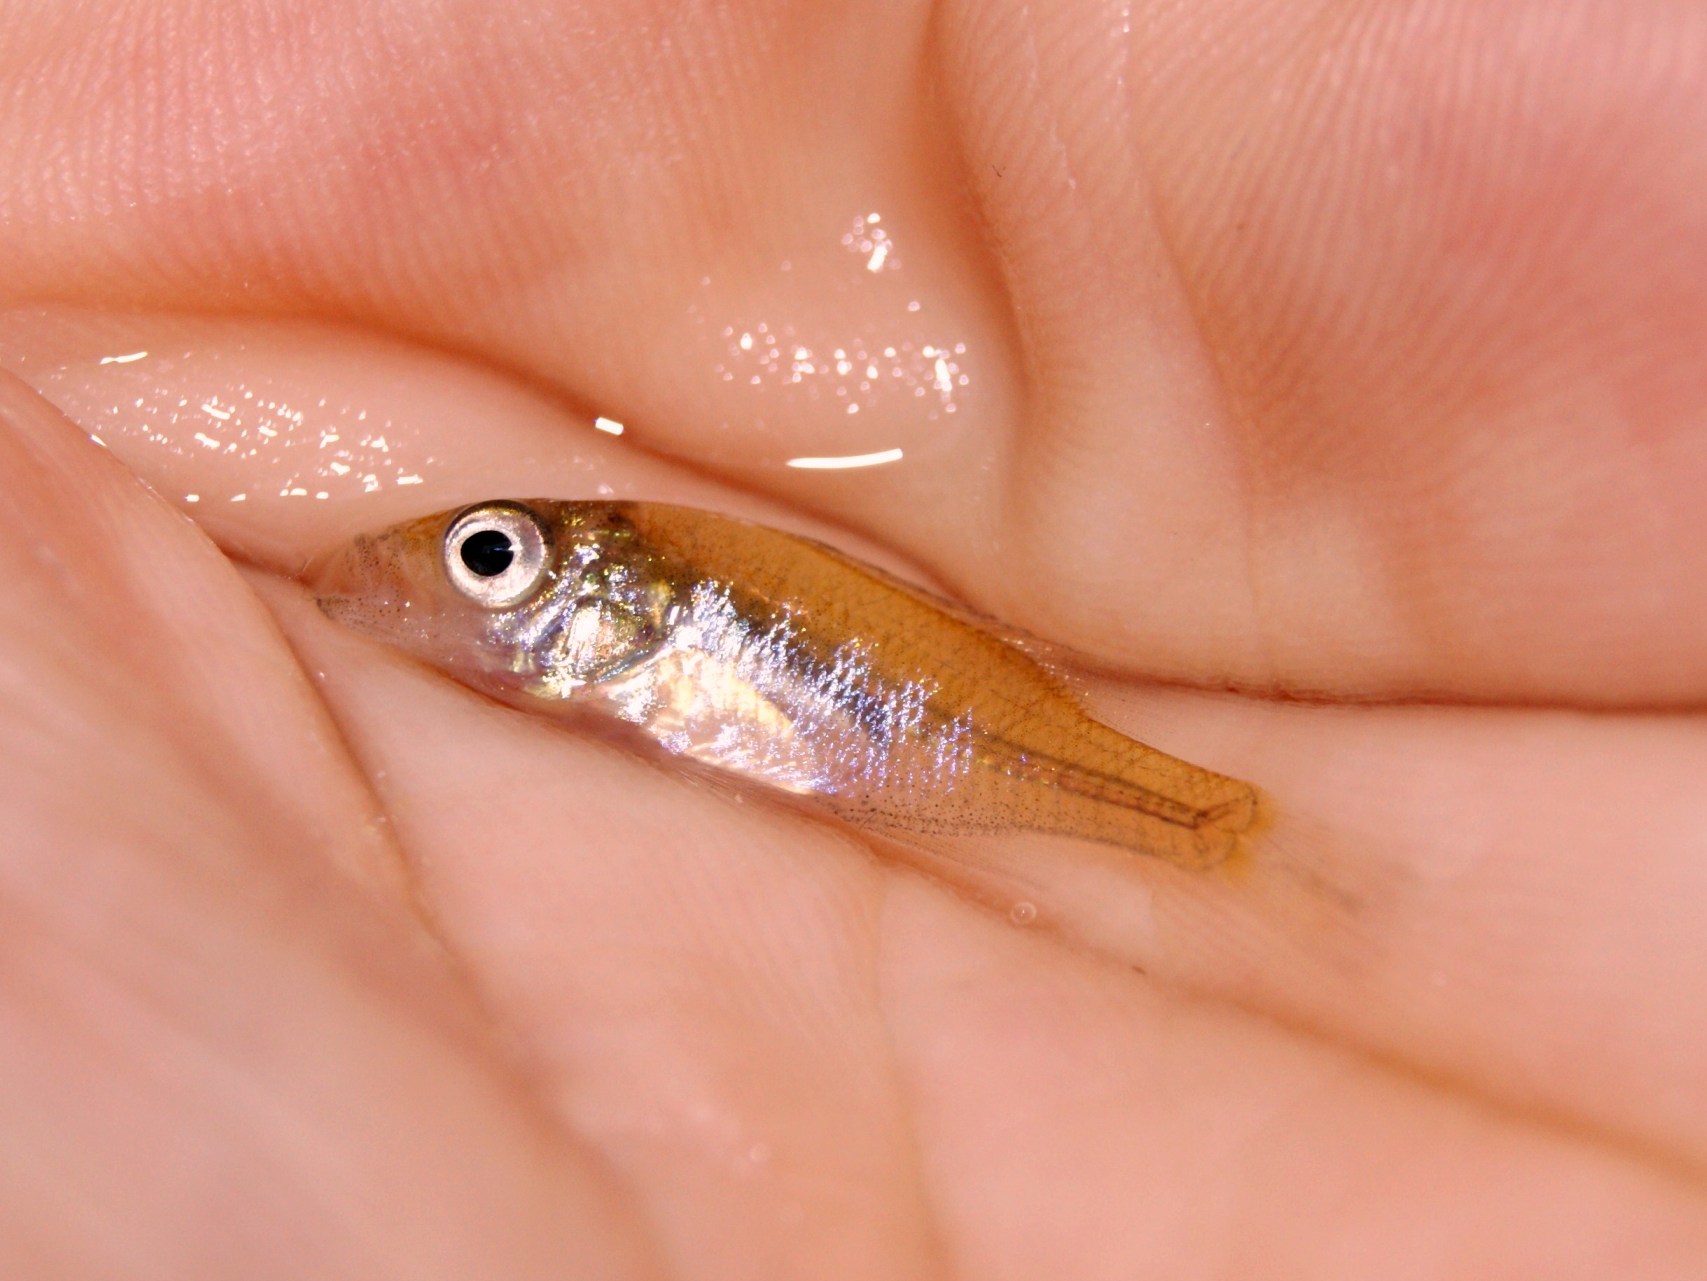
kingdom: Animalia
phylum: Chordata
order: Perciformes
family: Centrarchidae
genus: Lepomis
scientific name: Lepomis gibbosus
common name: Pumpkinseed
